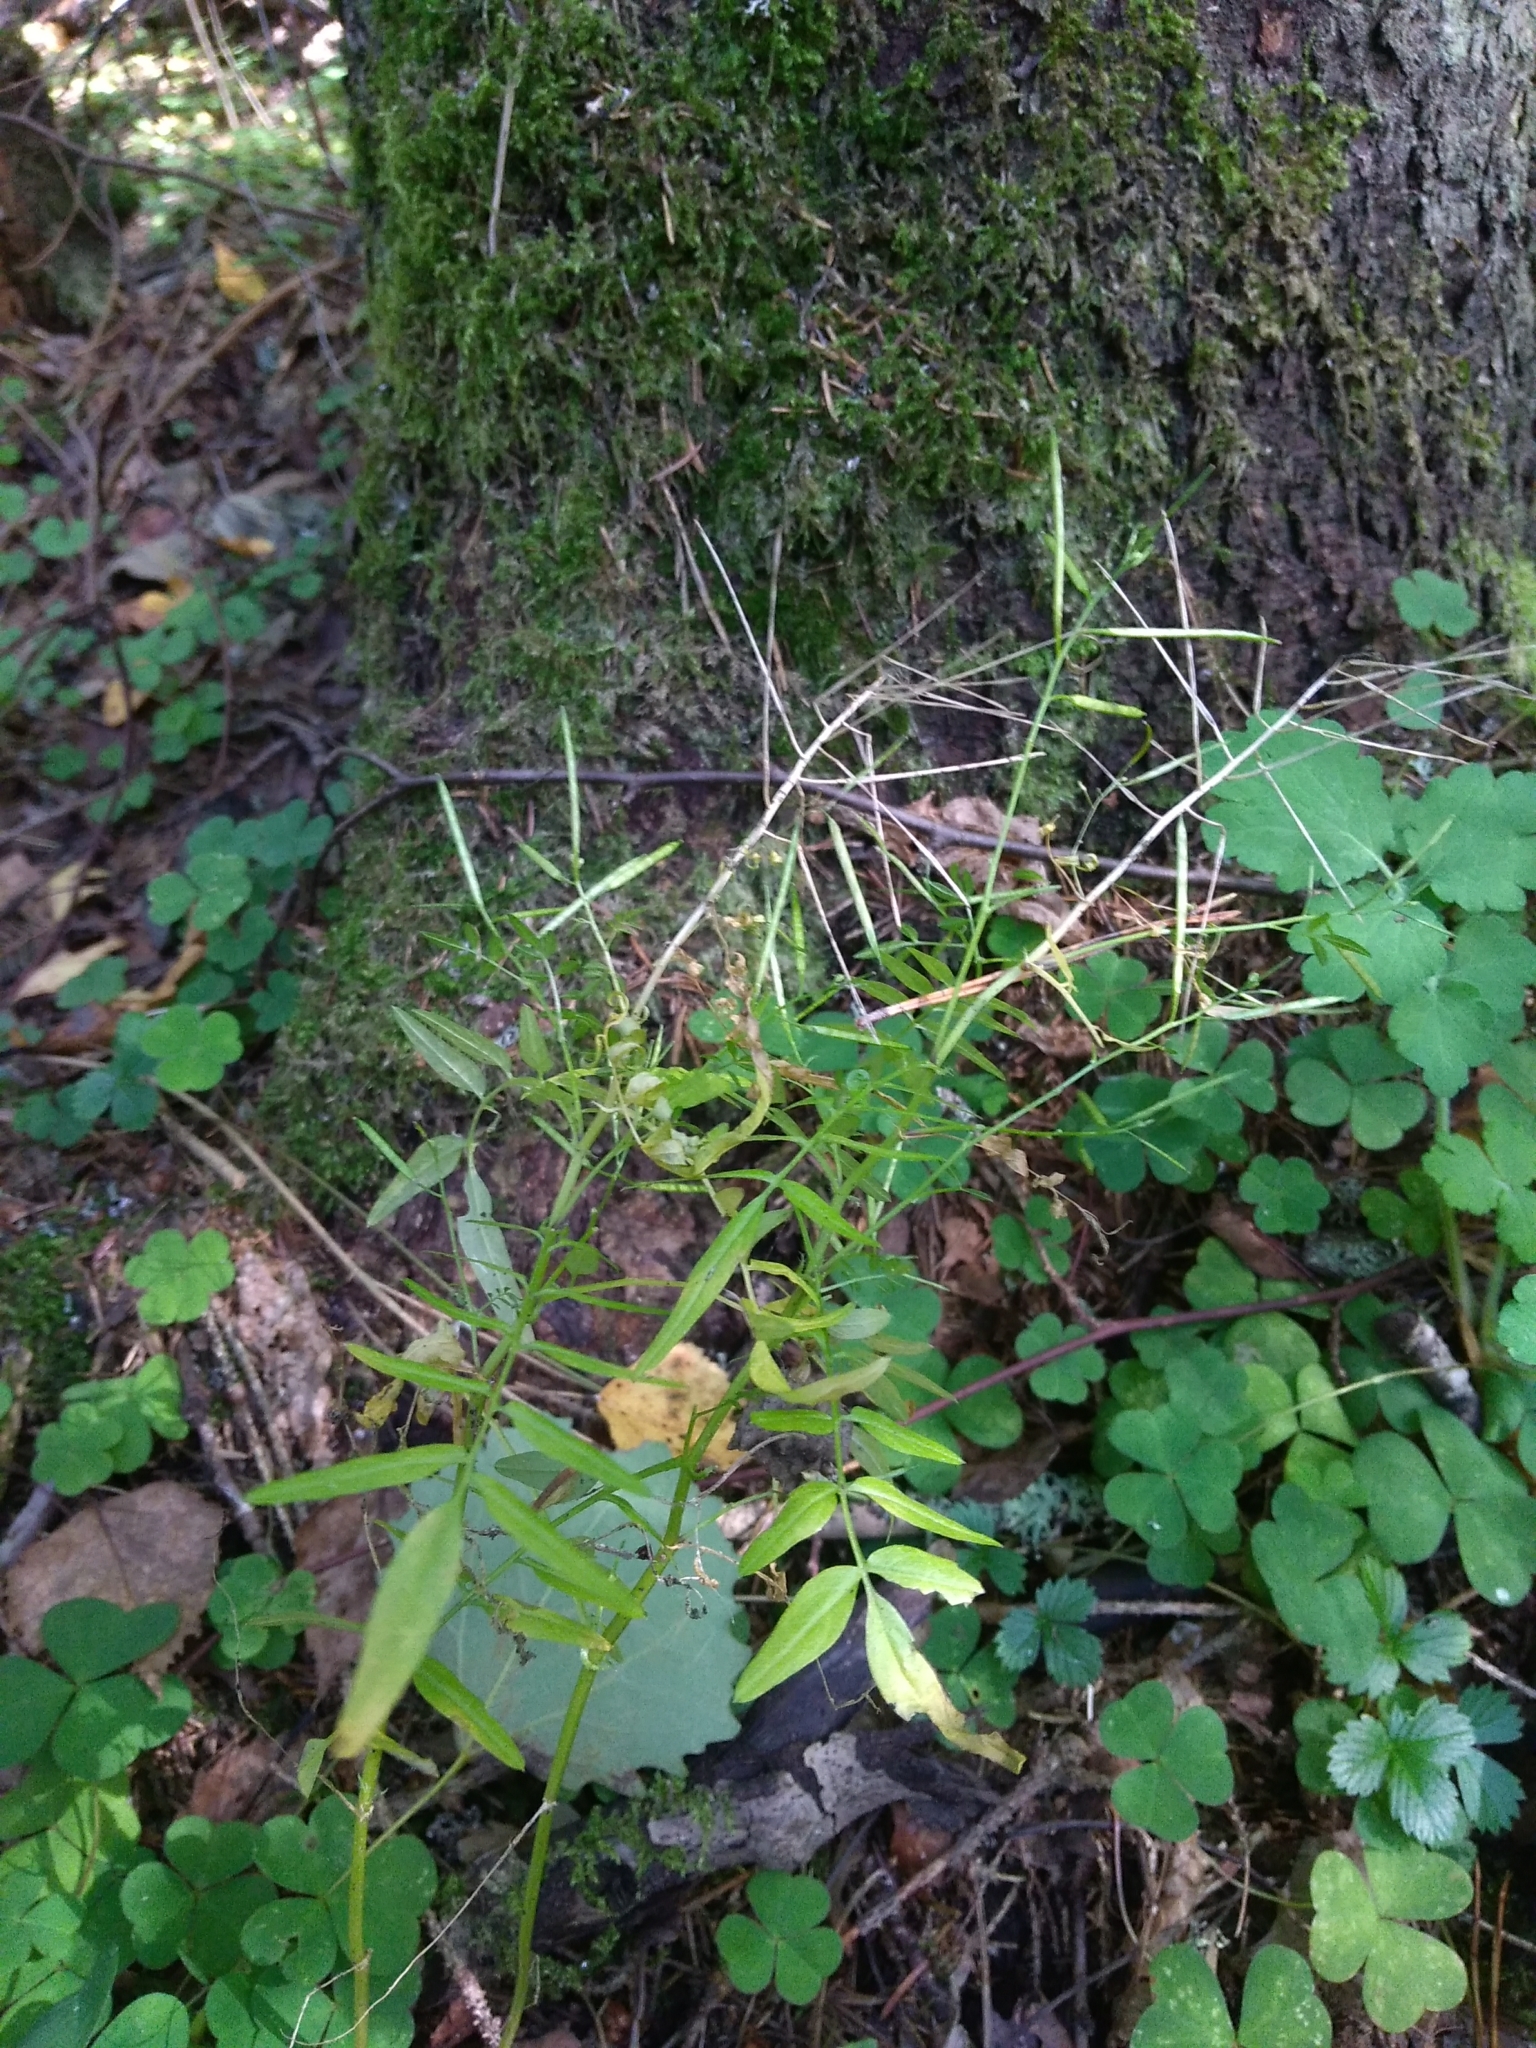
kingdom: Plantae
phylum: Tracheophyta
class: Magnoliopsida
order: Brassicales
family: Brassicaceae
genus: Cardamine
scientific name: Cardamine impatiens
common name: Narrow-leaved bitter-cress
